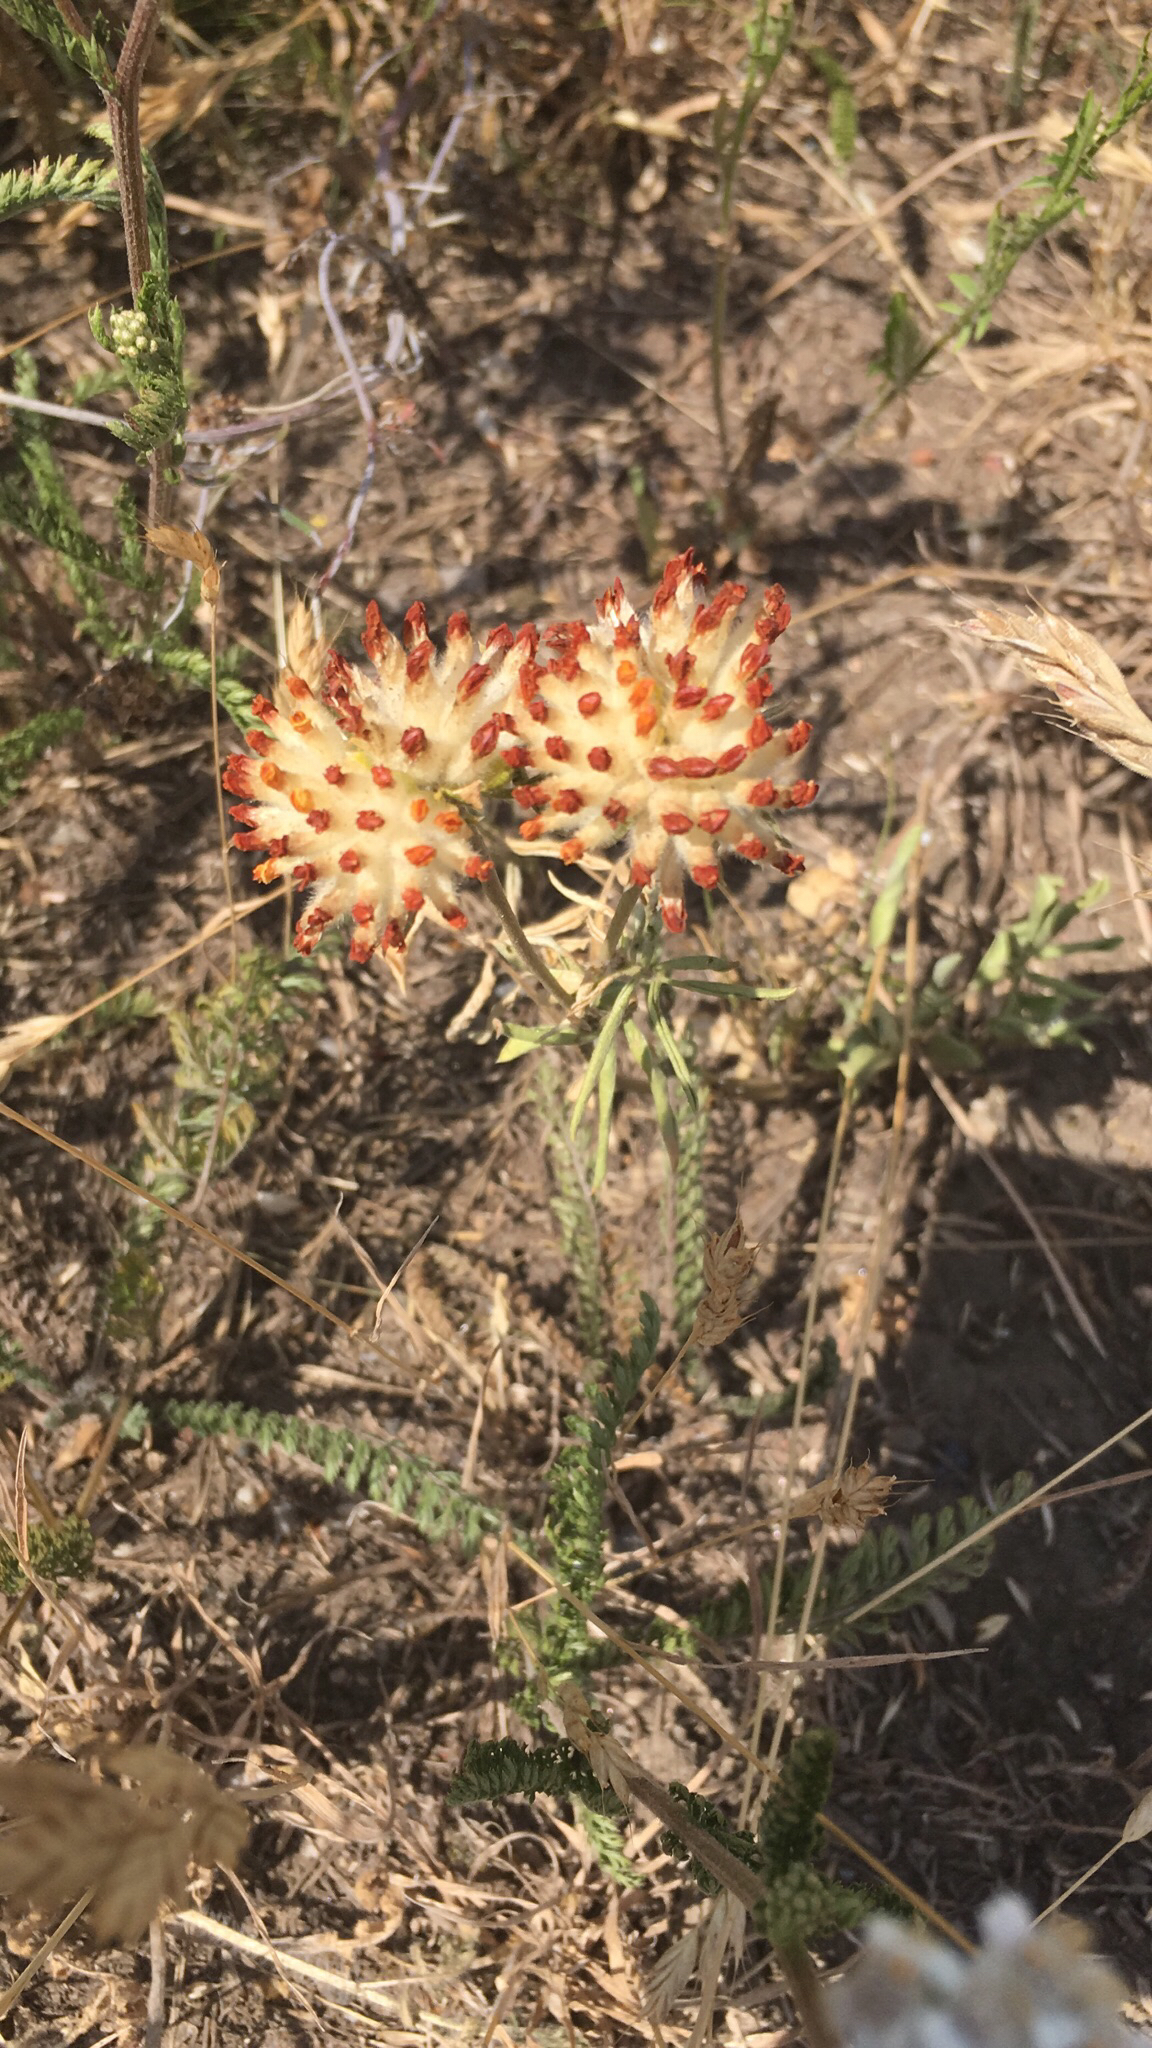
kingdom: Plantae
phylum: Tracheophyta
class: Magnoliopsida
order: Fabales
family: Fabaceae
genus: Anthyllis
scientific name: Anthyllis vulneraria
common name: Kidney vetch
